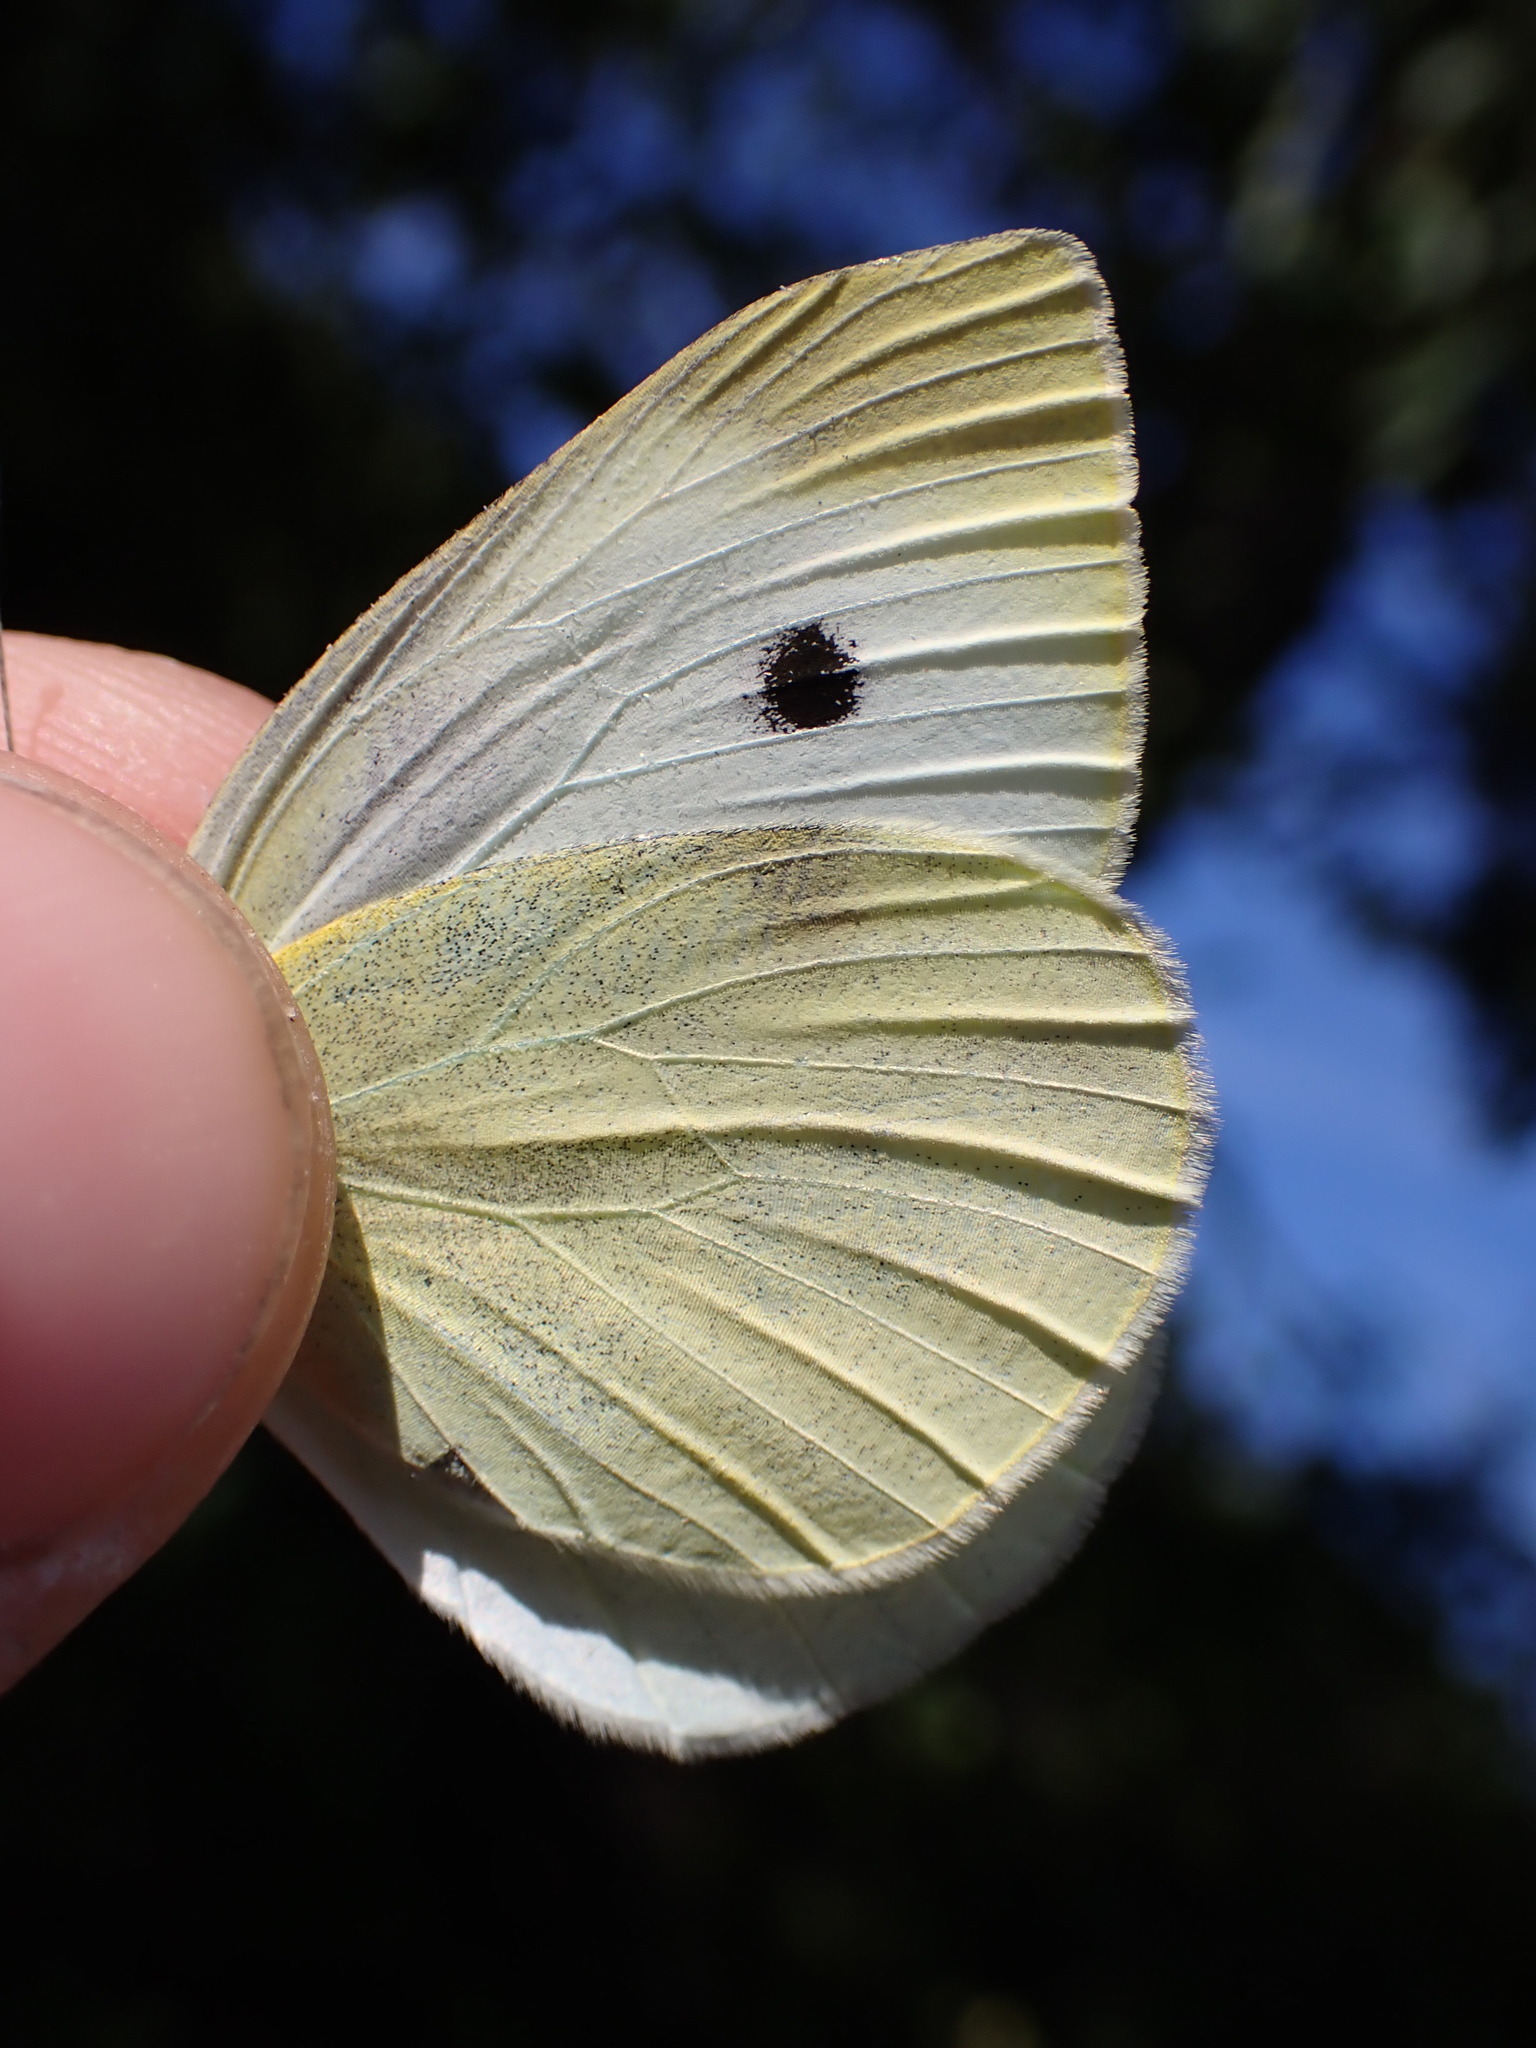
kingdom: Animalia
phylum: Arthropoda
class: Insecta
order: Lepidoptera
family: Pieridae
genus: Pieris
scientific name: Pieris rapae
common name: Small white
